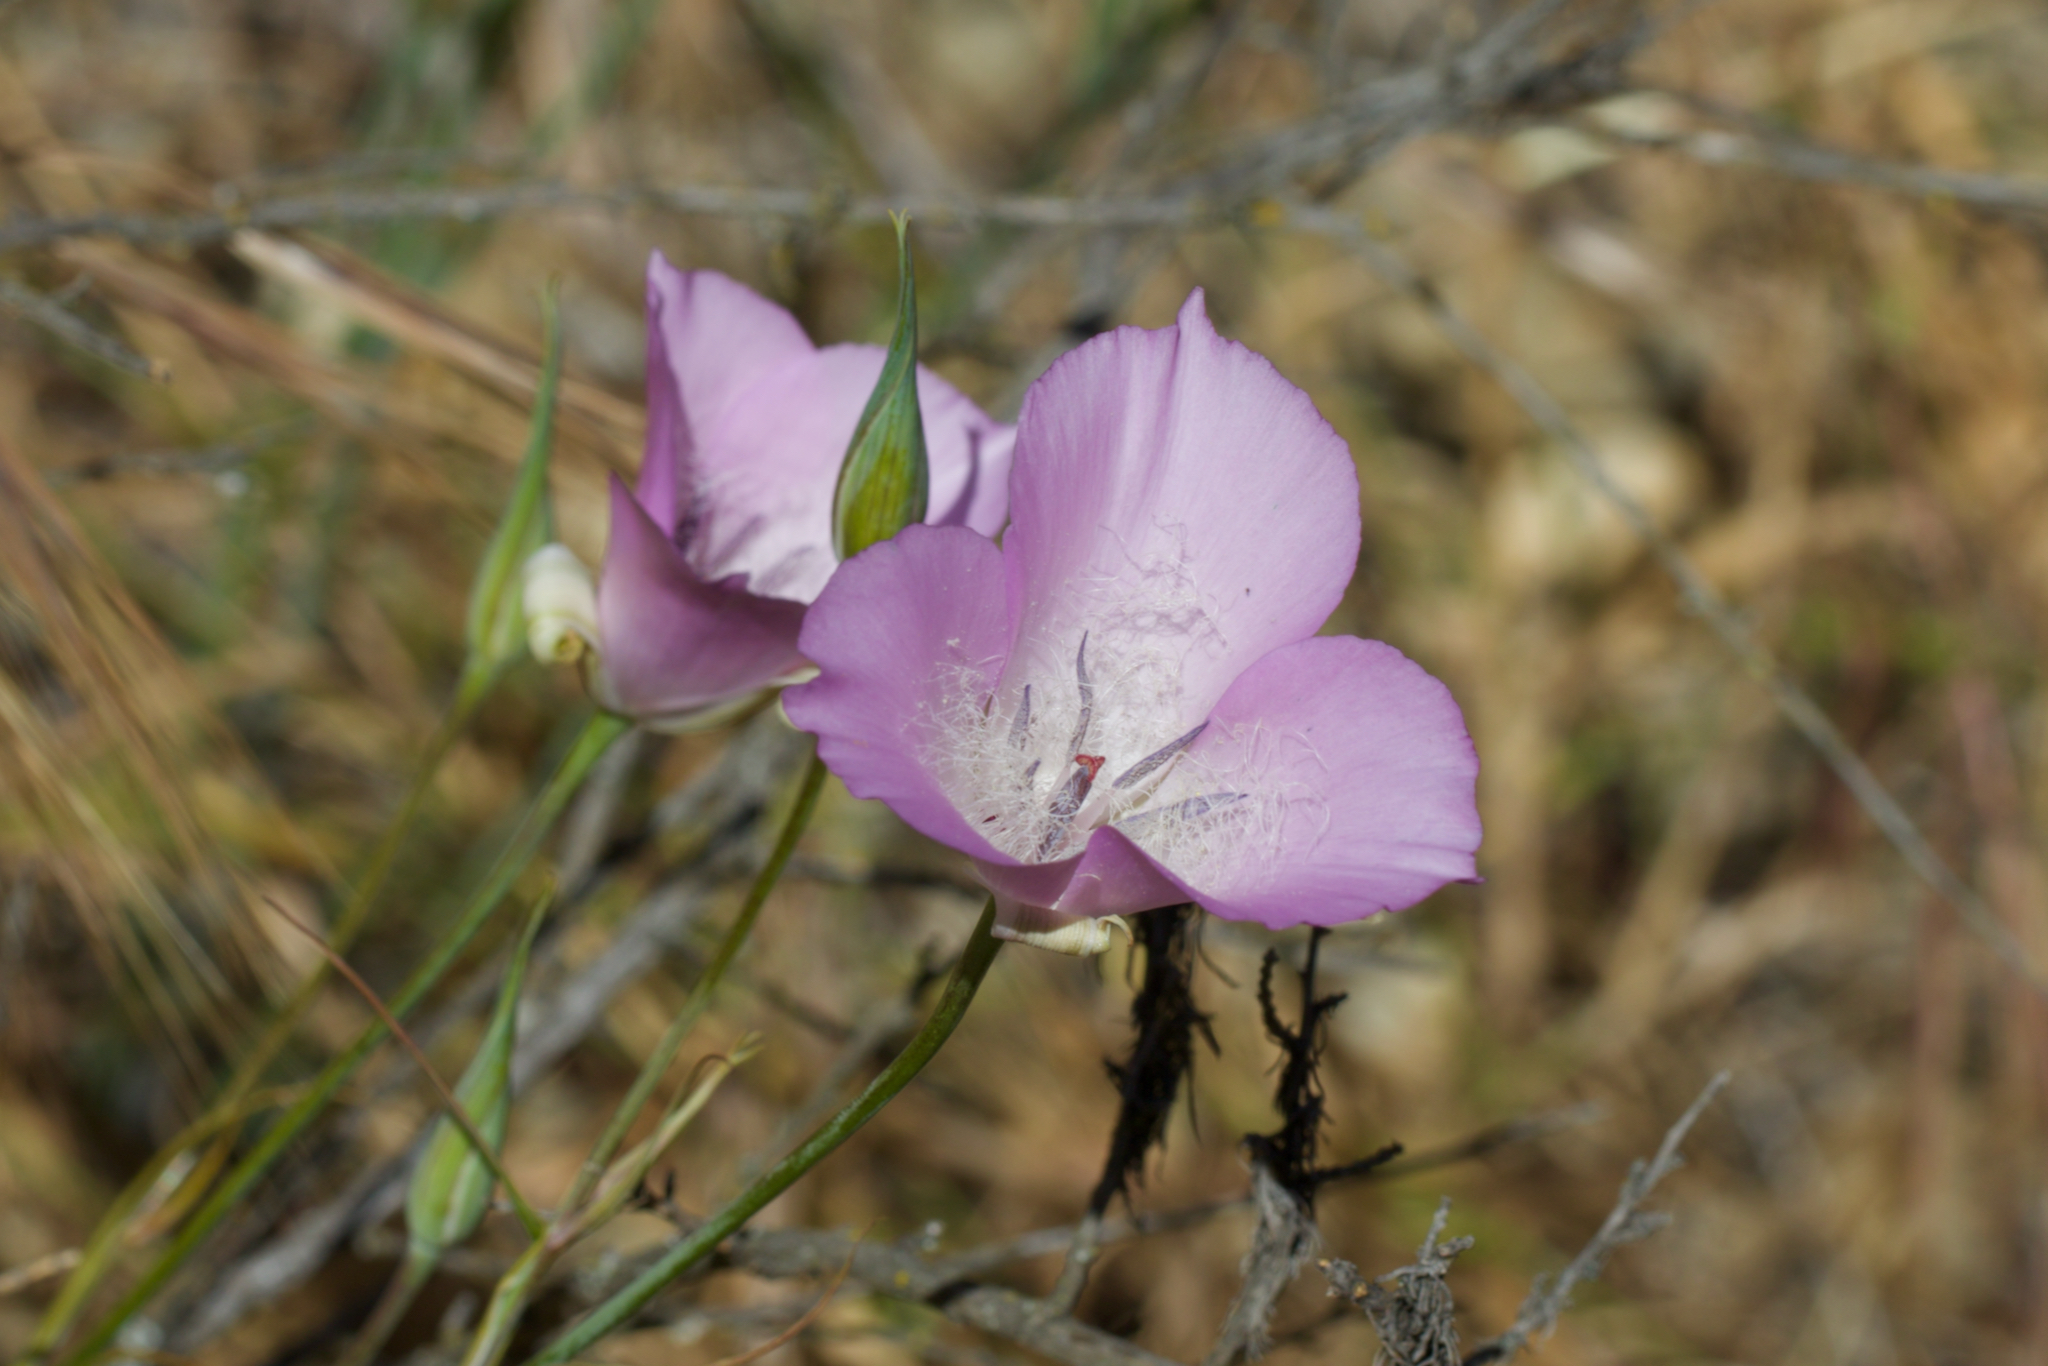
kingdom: Plantae
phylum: Tracheophyta
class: Liliopsida
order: Liliales
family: Liliaceae
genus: Calochortus
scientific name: Calochortus splendens
